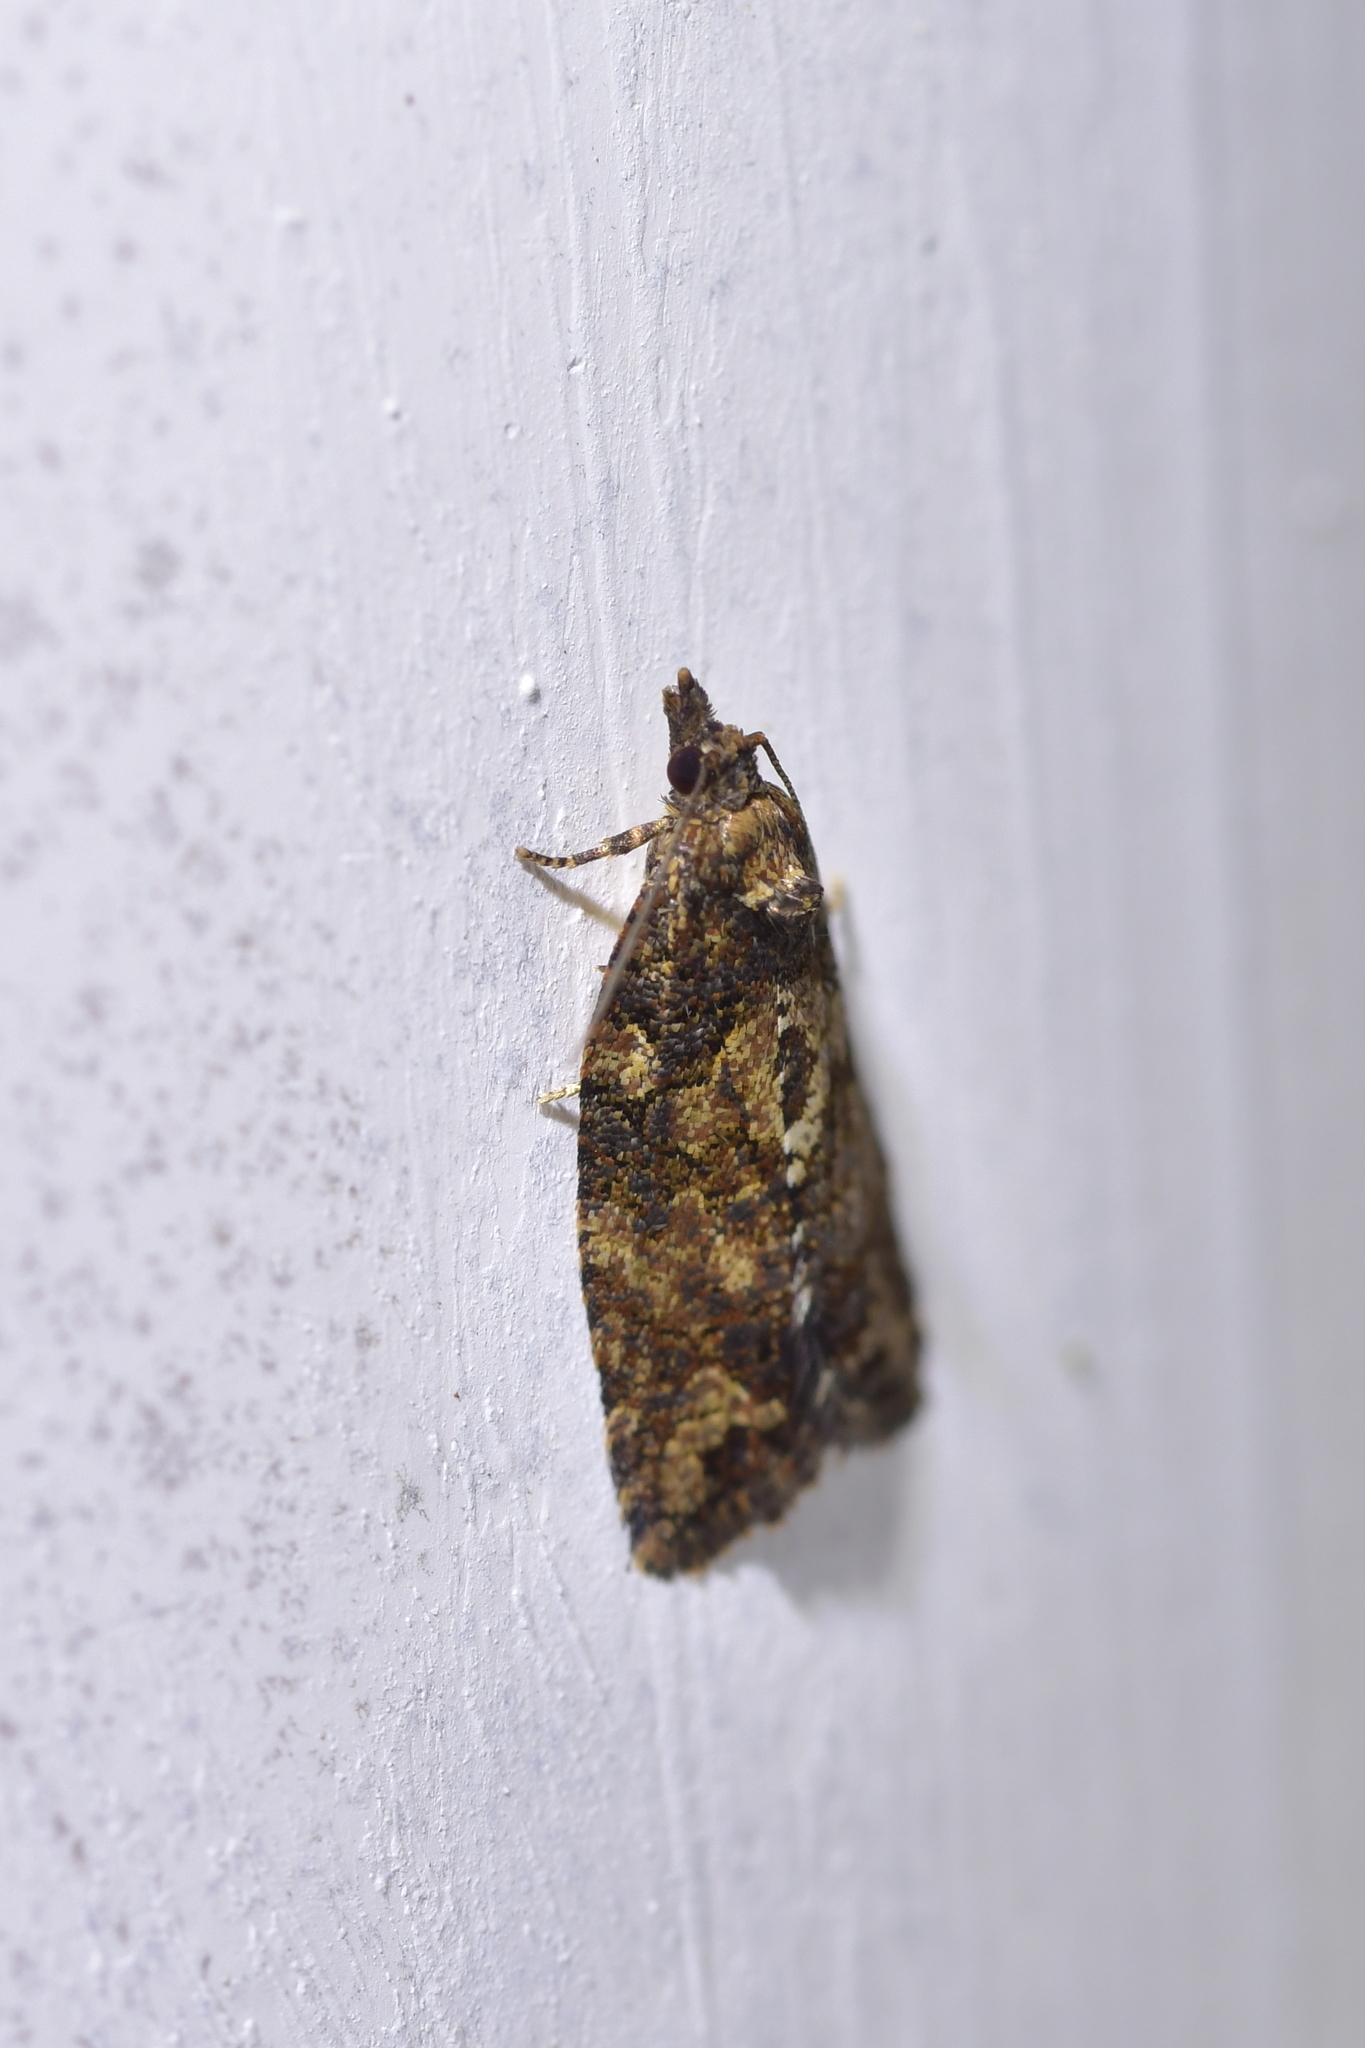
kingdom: Animalia
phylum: Arthropoda
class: Insecta
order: Lepidoptera
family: Tortricidae
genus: Capua
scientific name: Capua intractana
